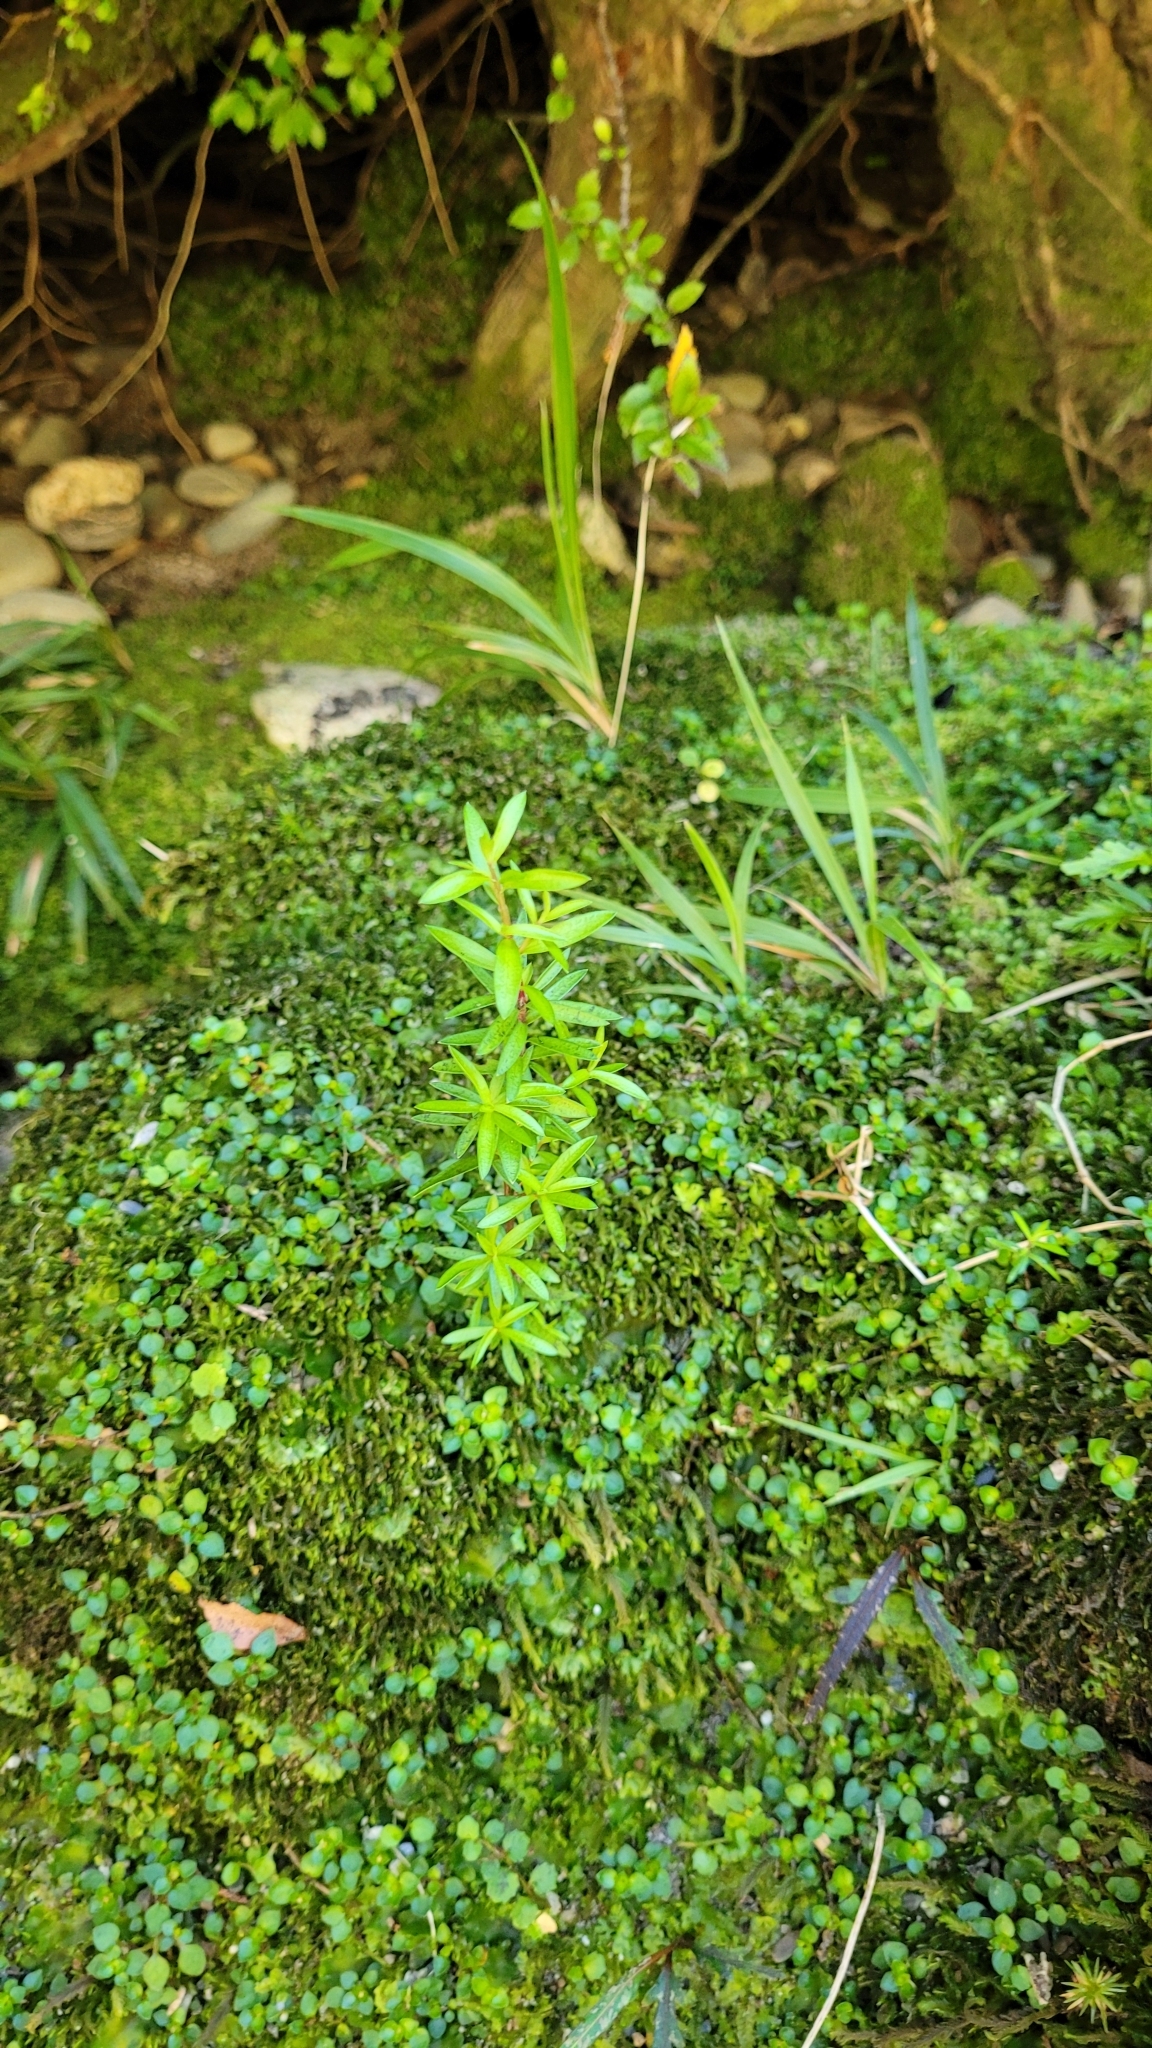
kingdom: Plantae
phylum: Tracheophyta
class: Magnoliopsida
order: Myrtales
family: Myrtaceae
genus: Leptospermum
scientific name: Leptospermum scoparium
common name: Broom tea-tree
